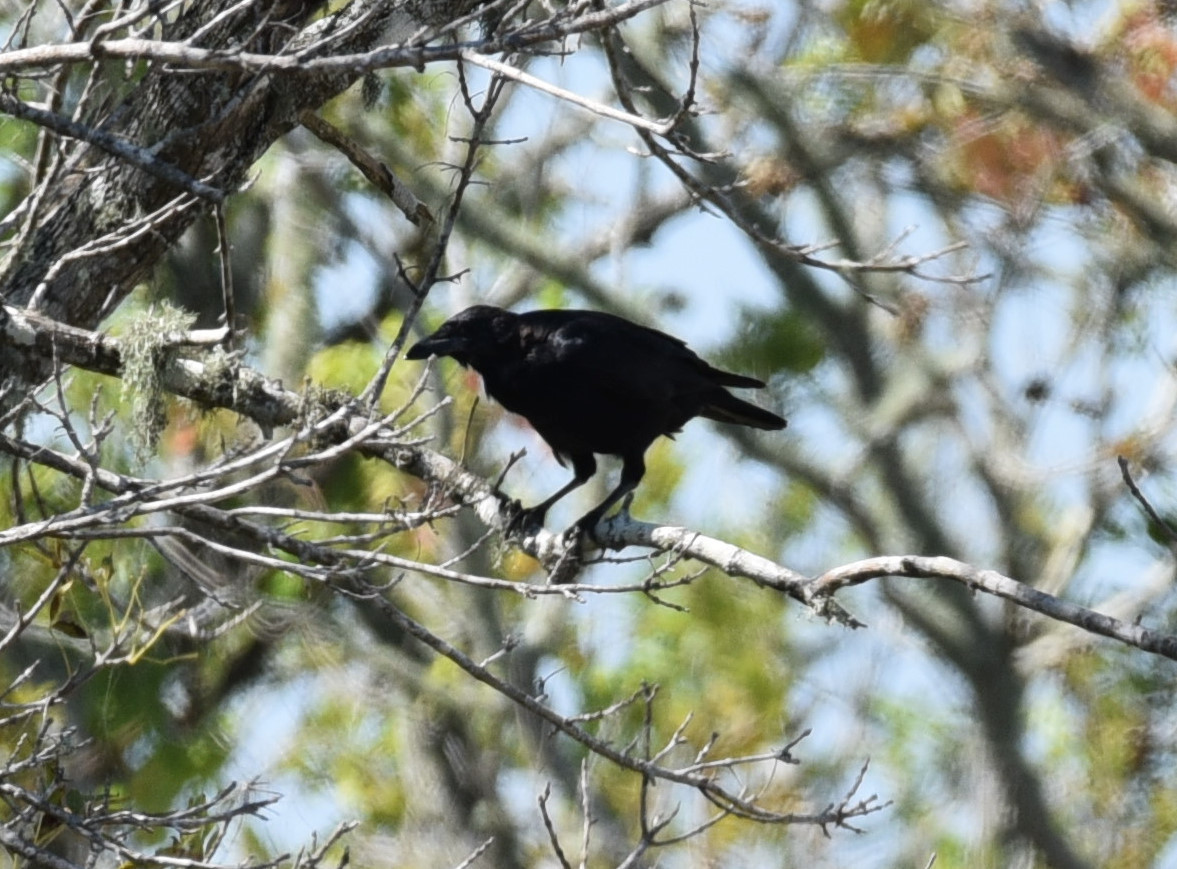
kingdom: Animalia
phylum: Chordata
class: Aves
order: Passeriformes
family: Corvidae
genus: Corvus
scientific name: Corvus brachyrhynchos
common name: American crow
